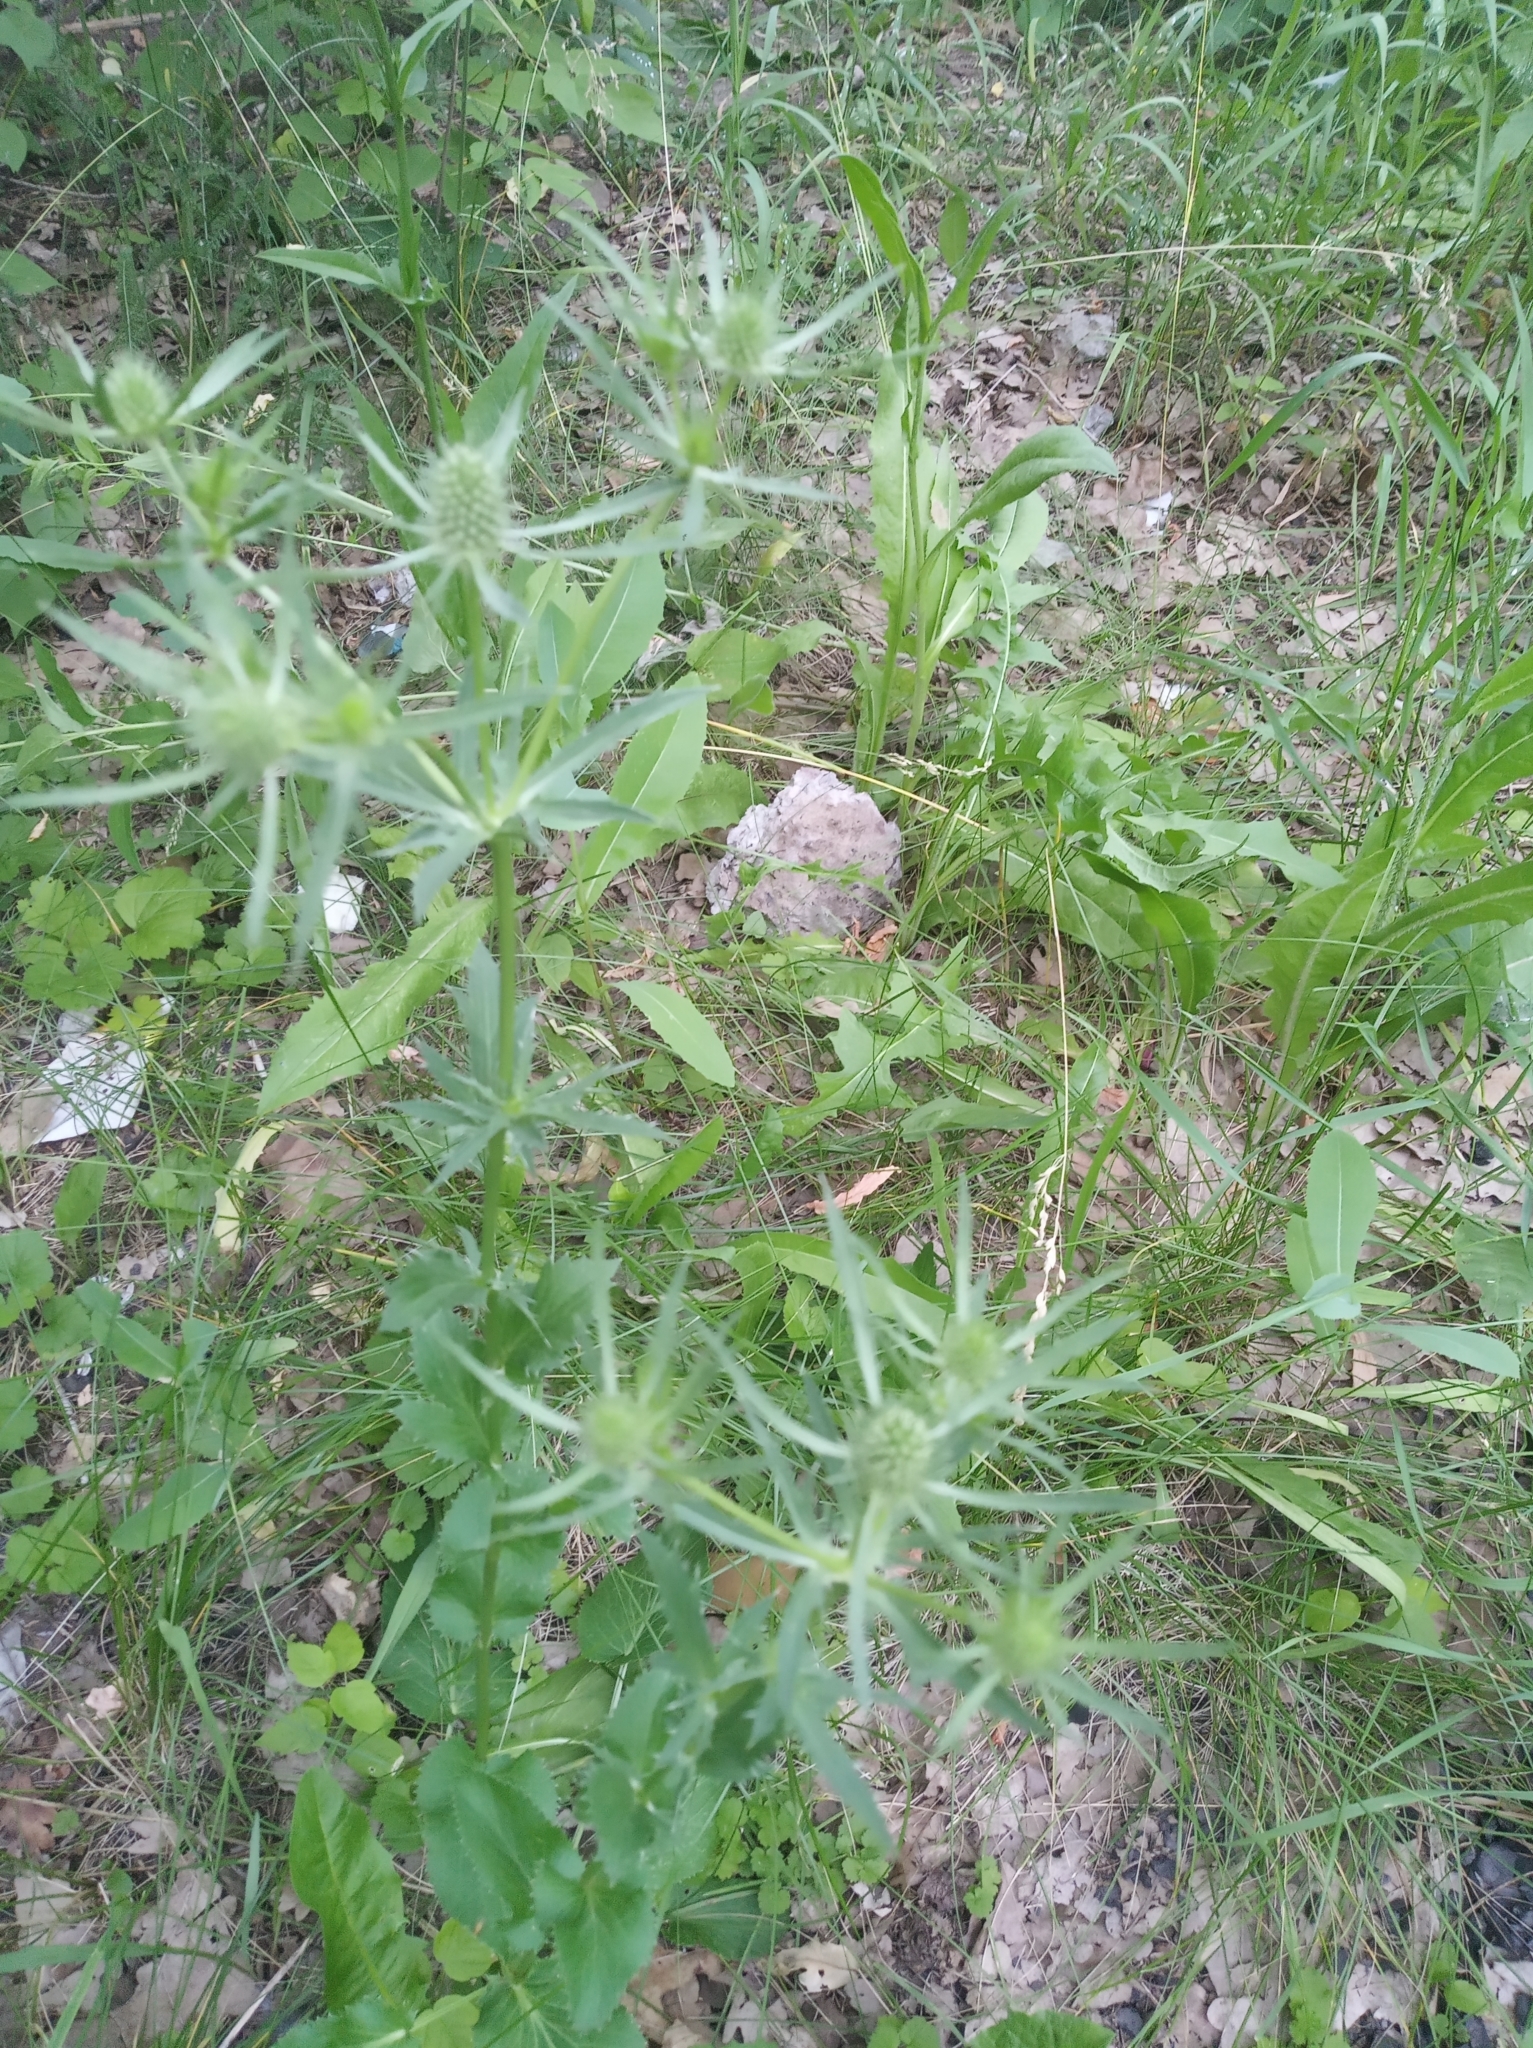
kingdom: Plantae
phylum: Tracheophyta
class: Magnoliopsida
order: Apiales
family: Apiaceae
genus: Eryngium
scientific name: Eryngium planum
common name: Blue eryngo
